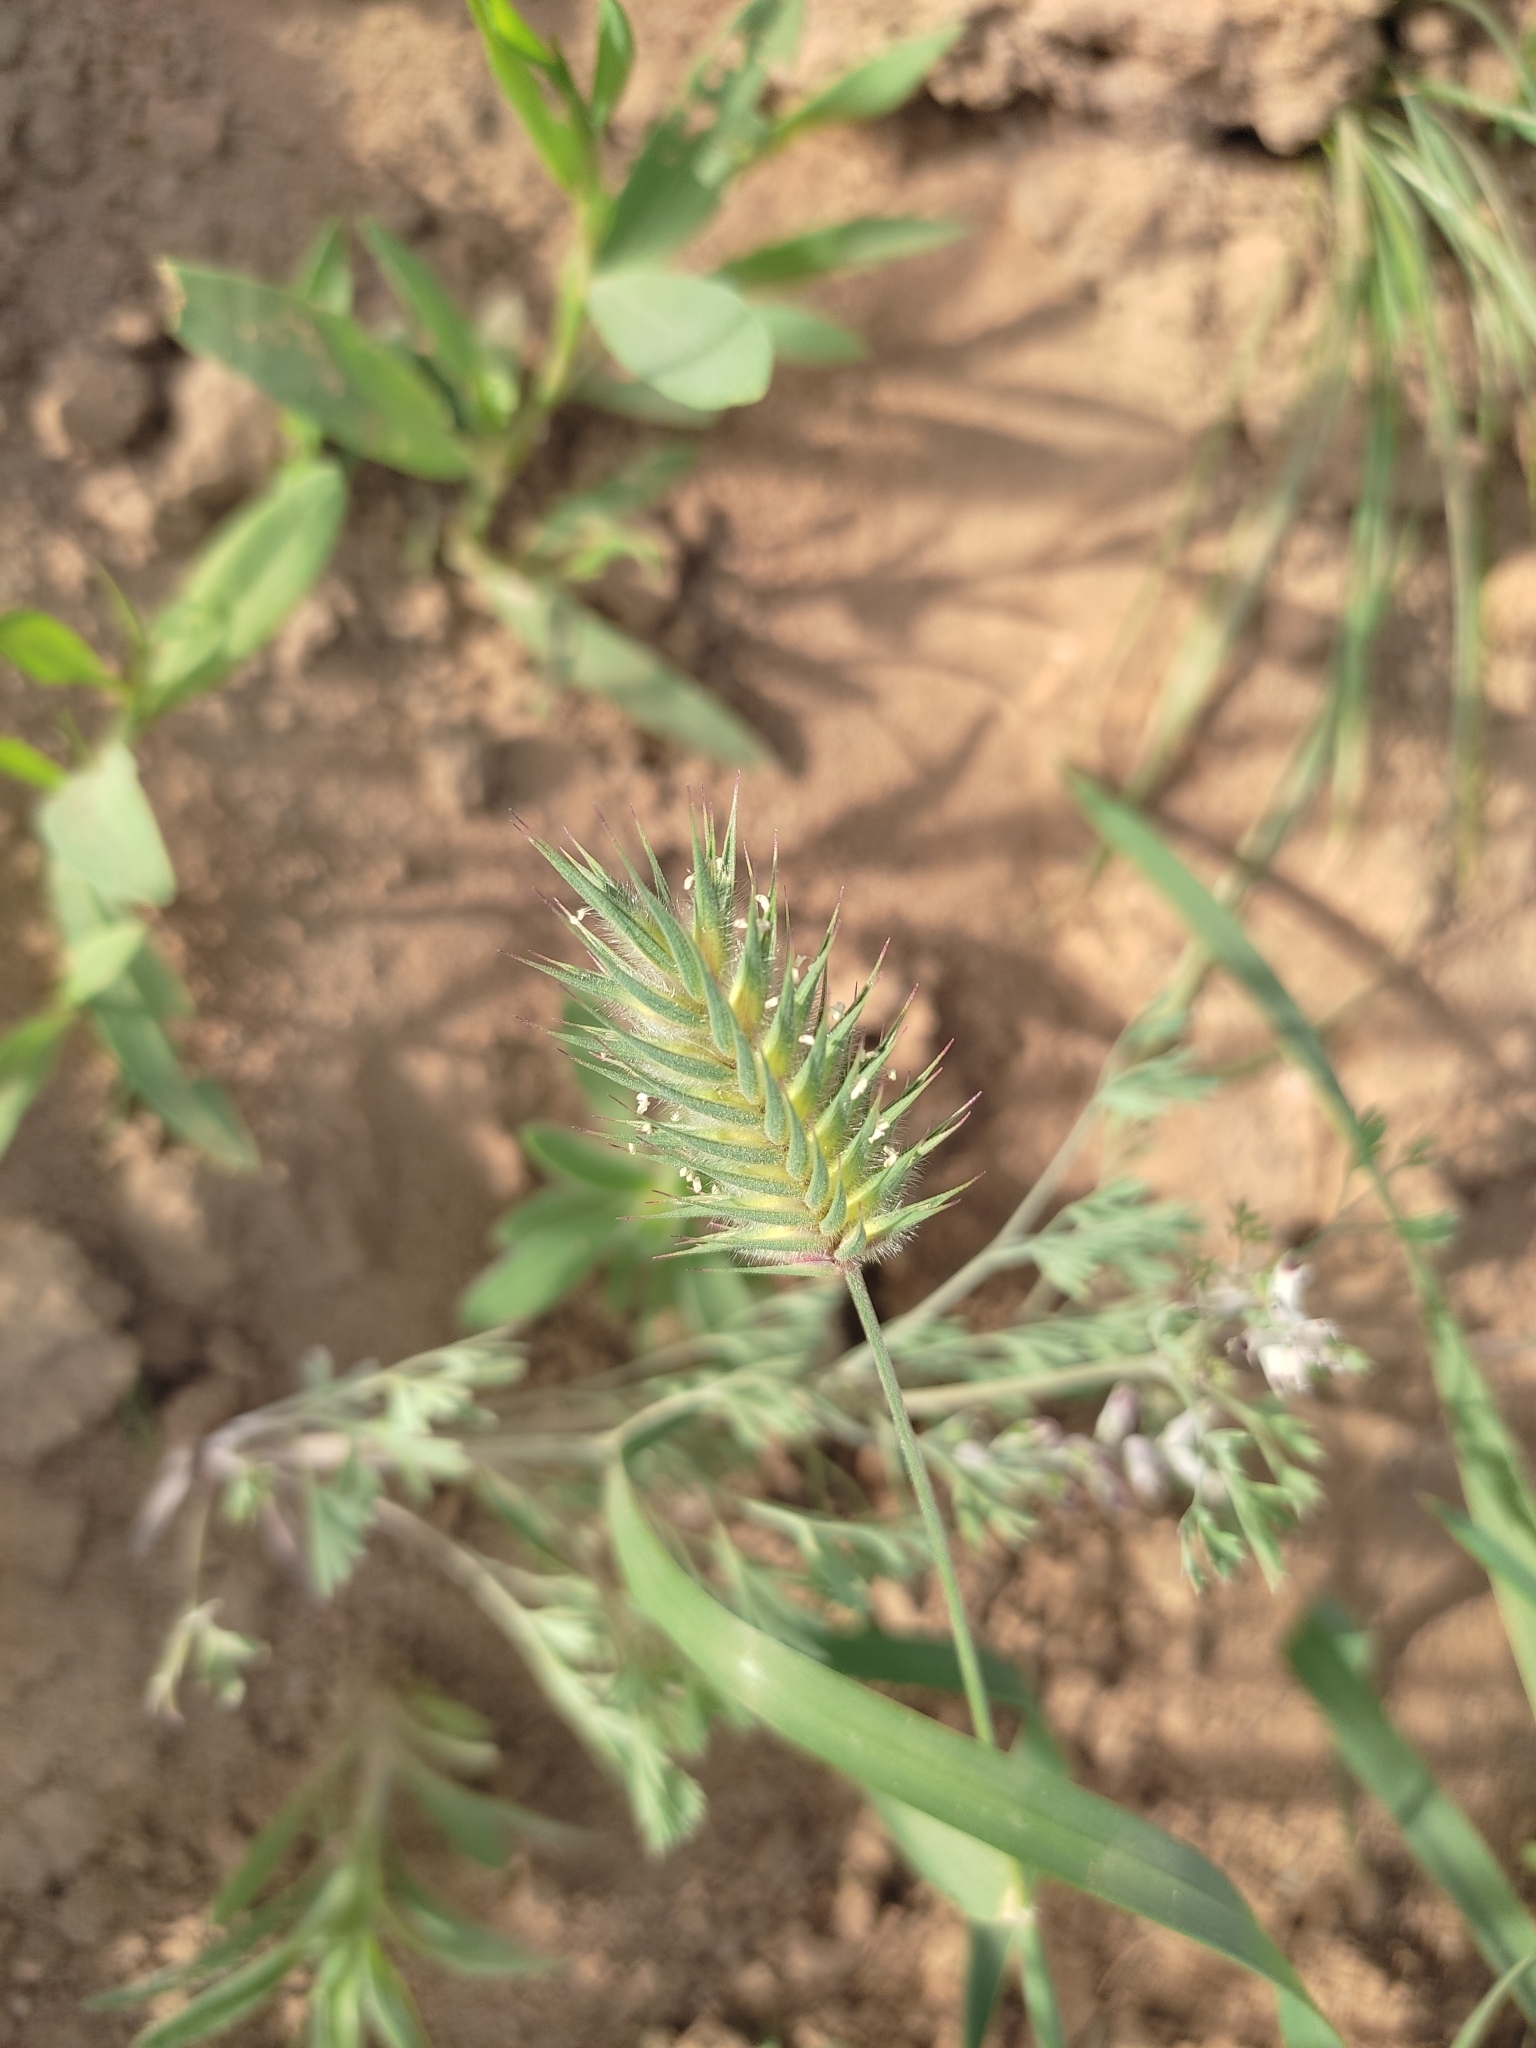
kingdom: Plantae
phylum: Tracheophyta
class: Liliopsida
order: Poales
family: Poaceae
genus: Eremopyrum
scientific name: Eremopyrum orientale
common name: Oriental false wheatgrass
